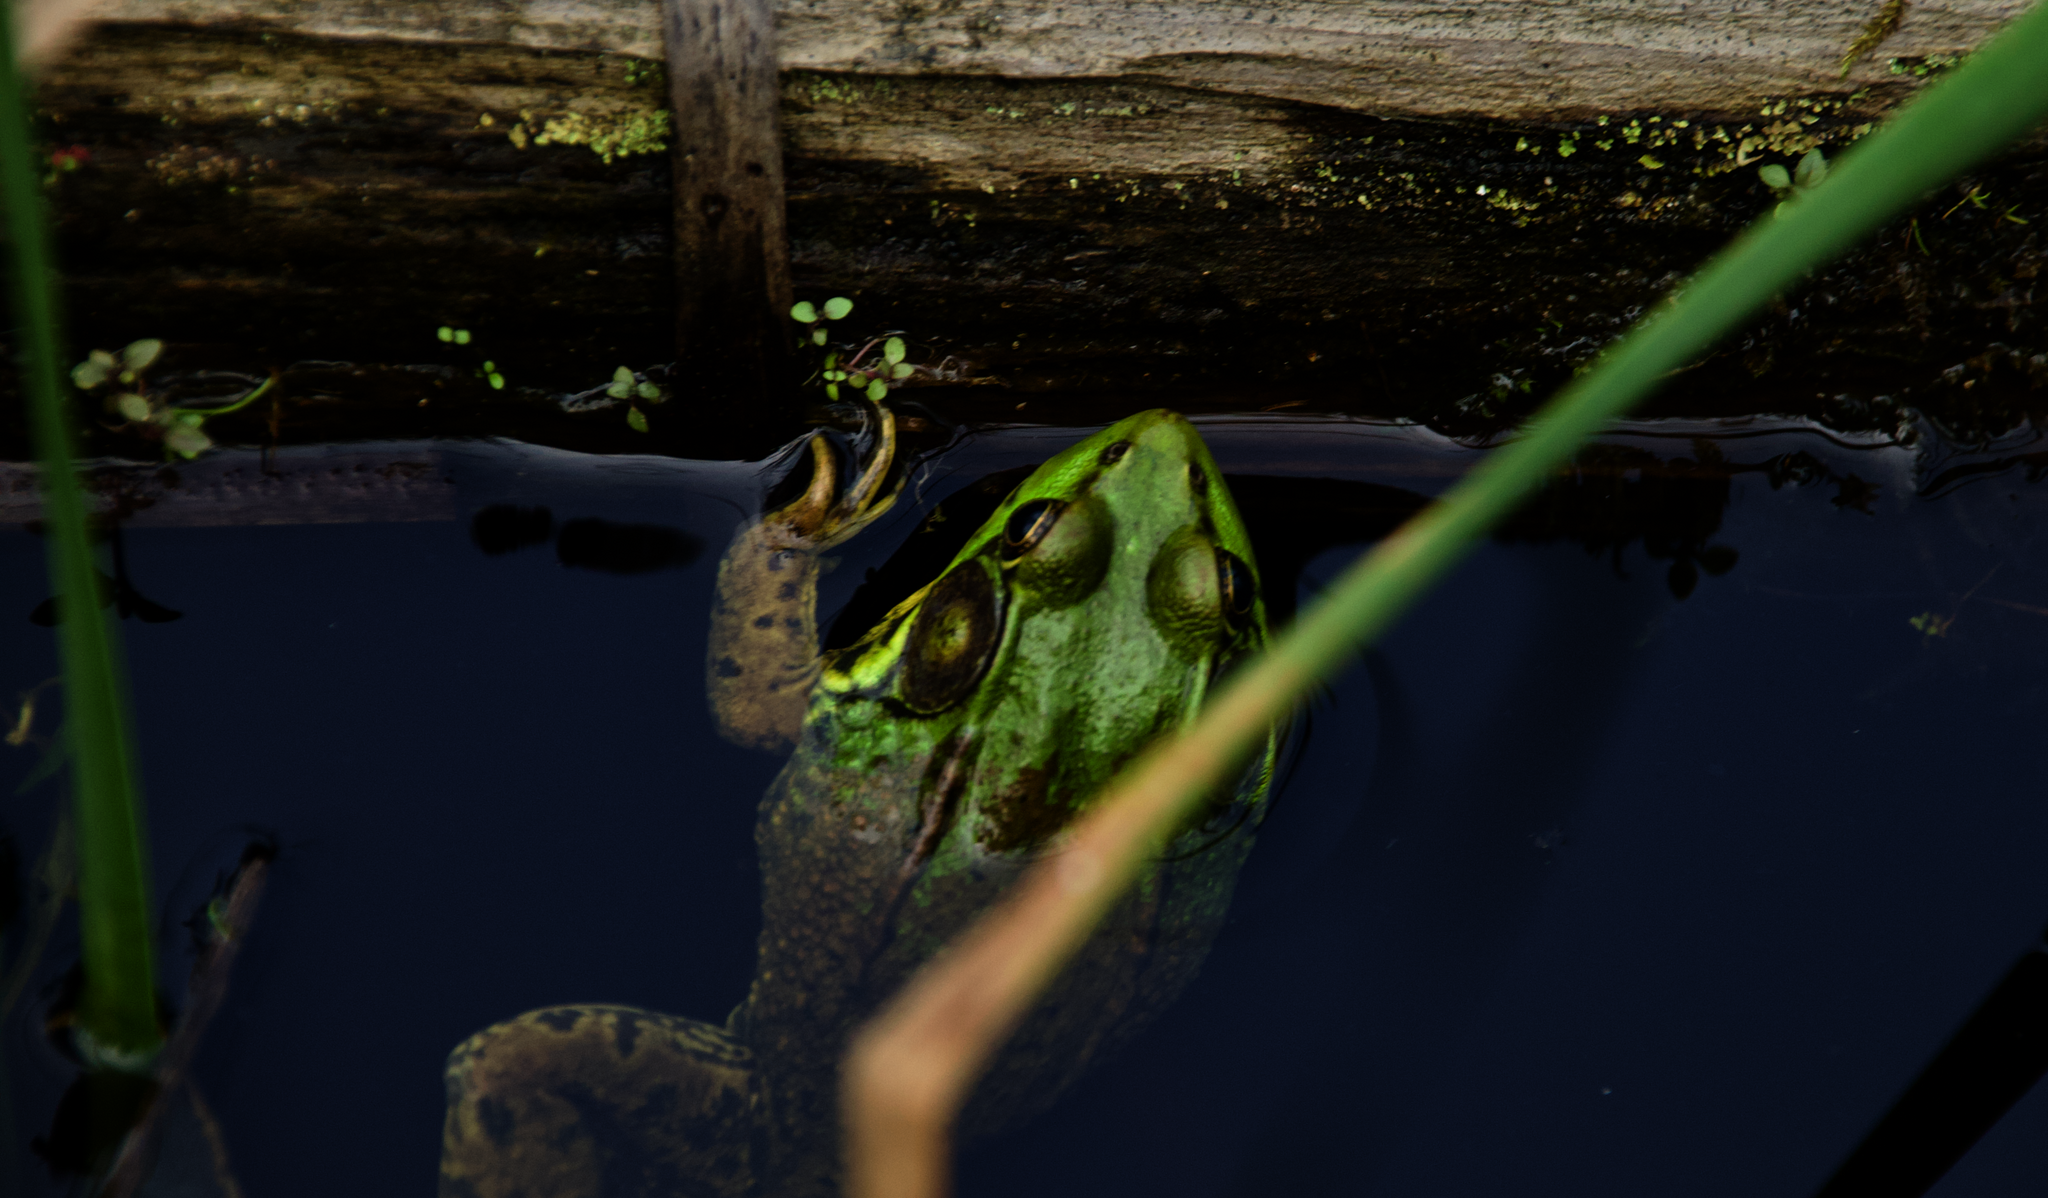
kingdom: Animalia
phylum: Chordata
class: Amphibia
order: Anura
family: Ranidae
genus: Lithobates
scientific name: Lithobates clamitans
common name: Green frog
